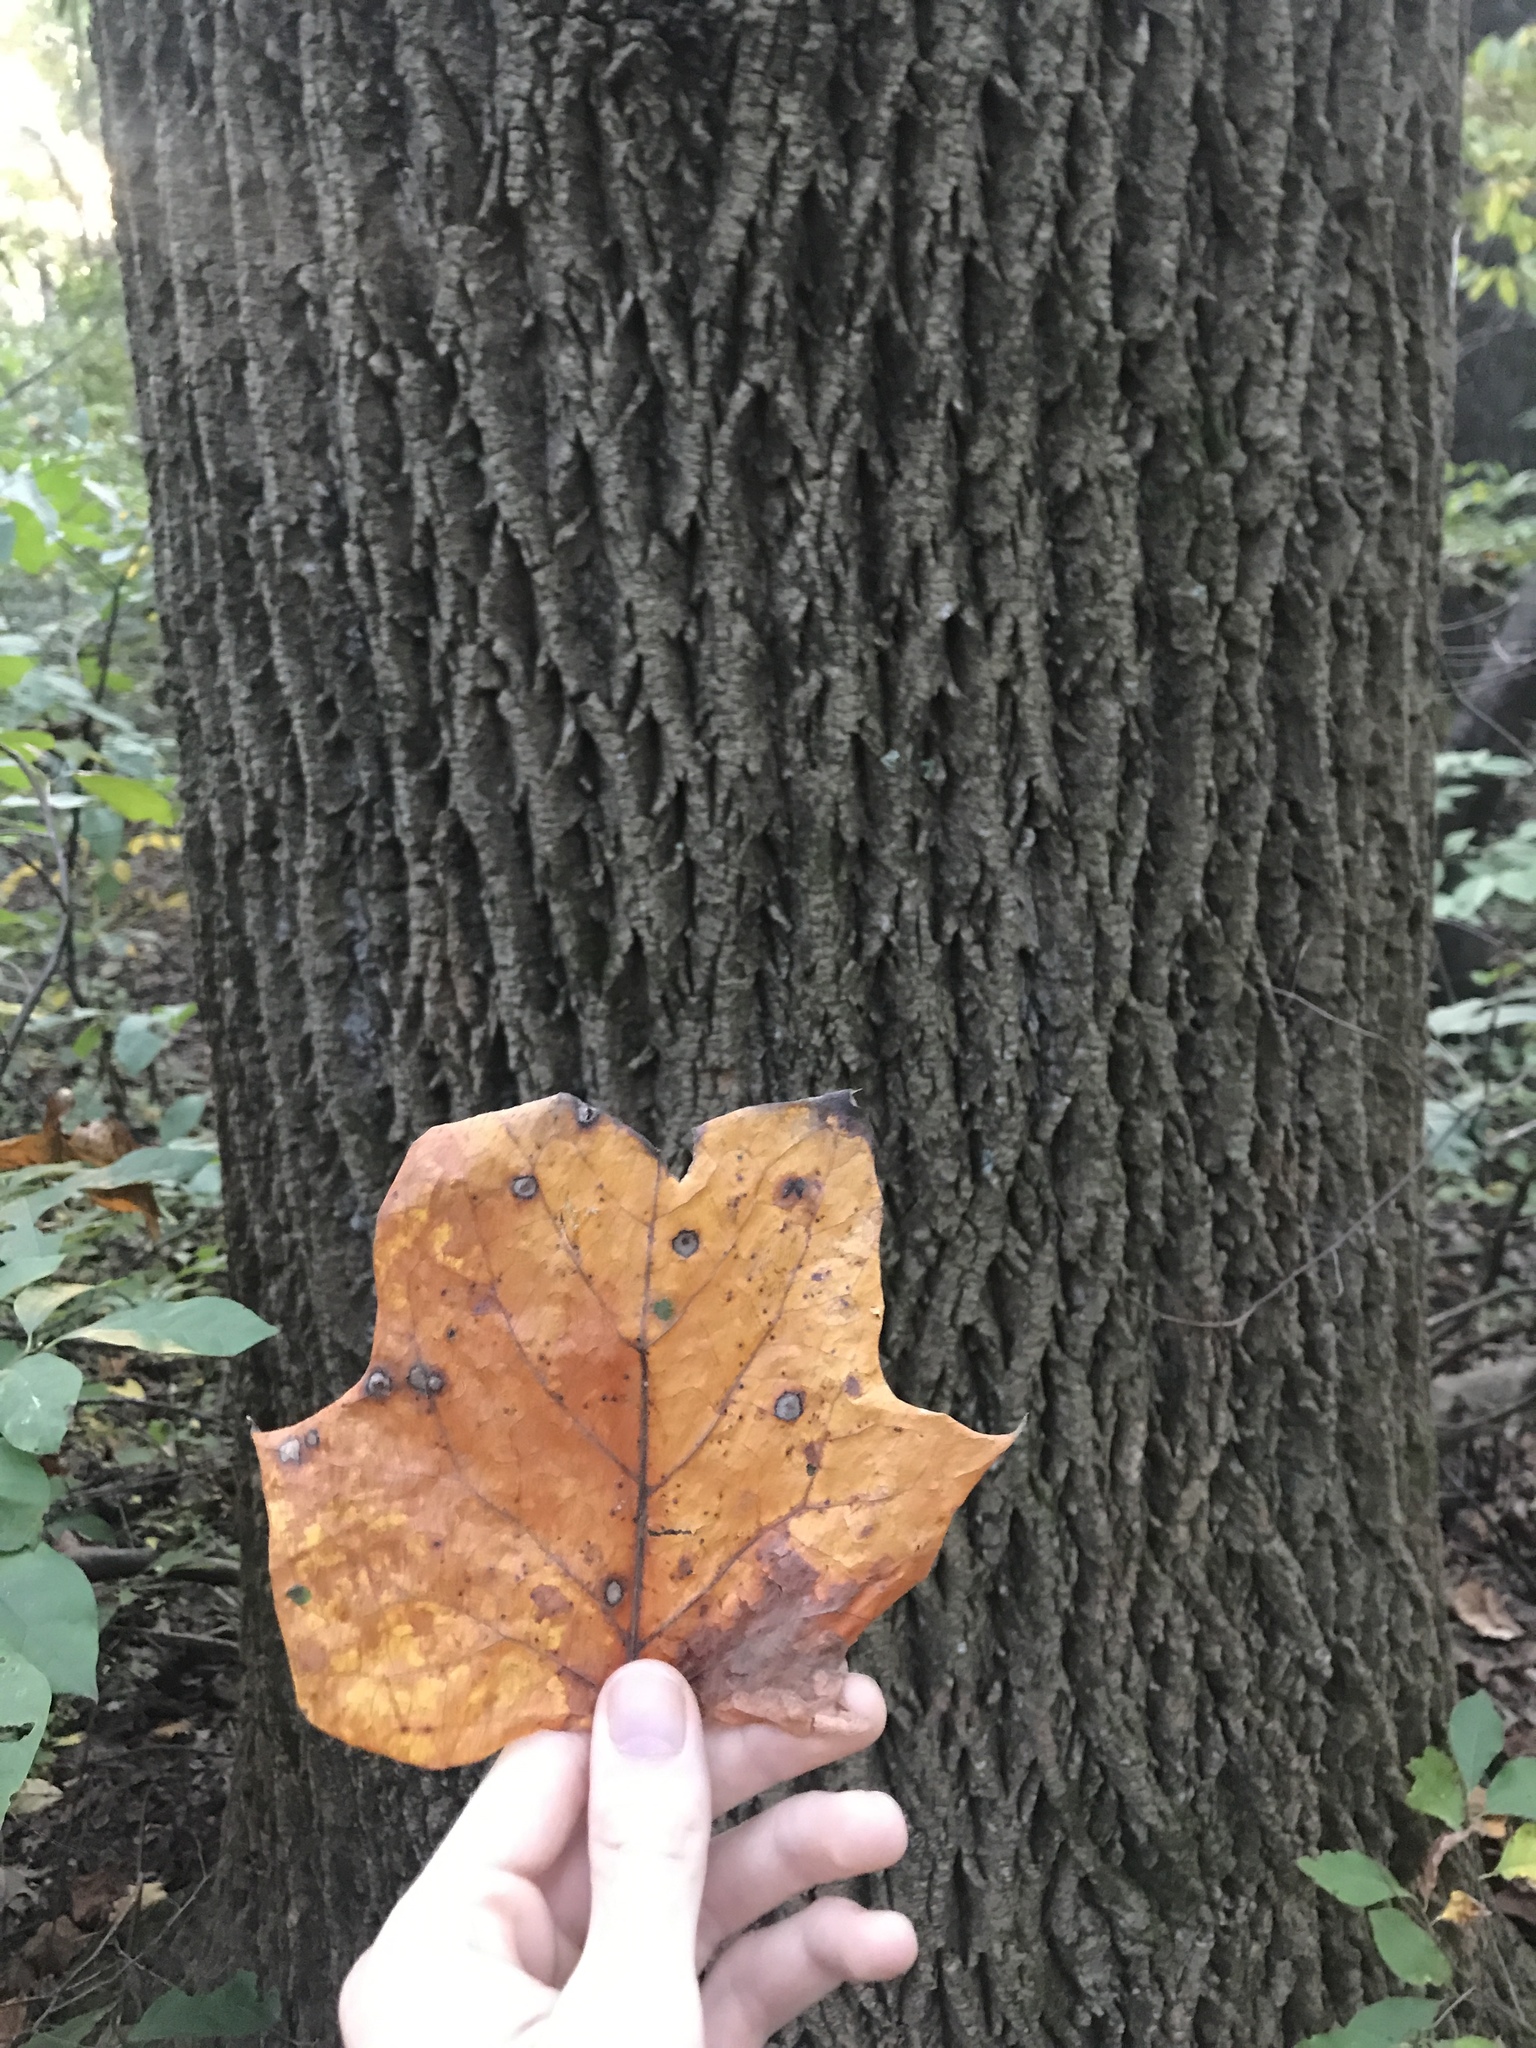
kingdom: Plantae
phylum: Tracheophyta
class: Magnoliopsida
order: Magnoliales
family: Magnoliaceae
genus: Liriodendron
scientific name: Liriodendron tulipifera
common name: Tulip tree
